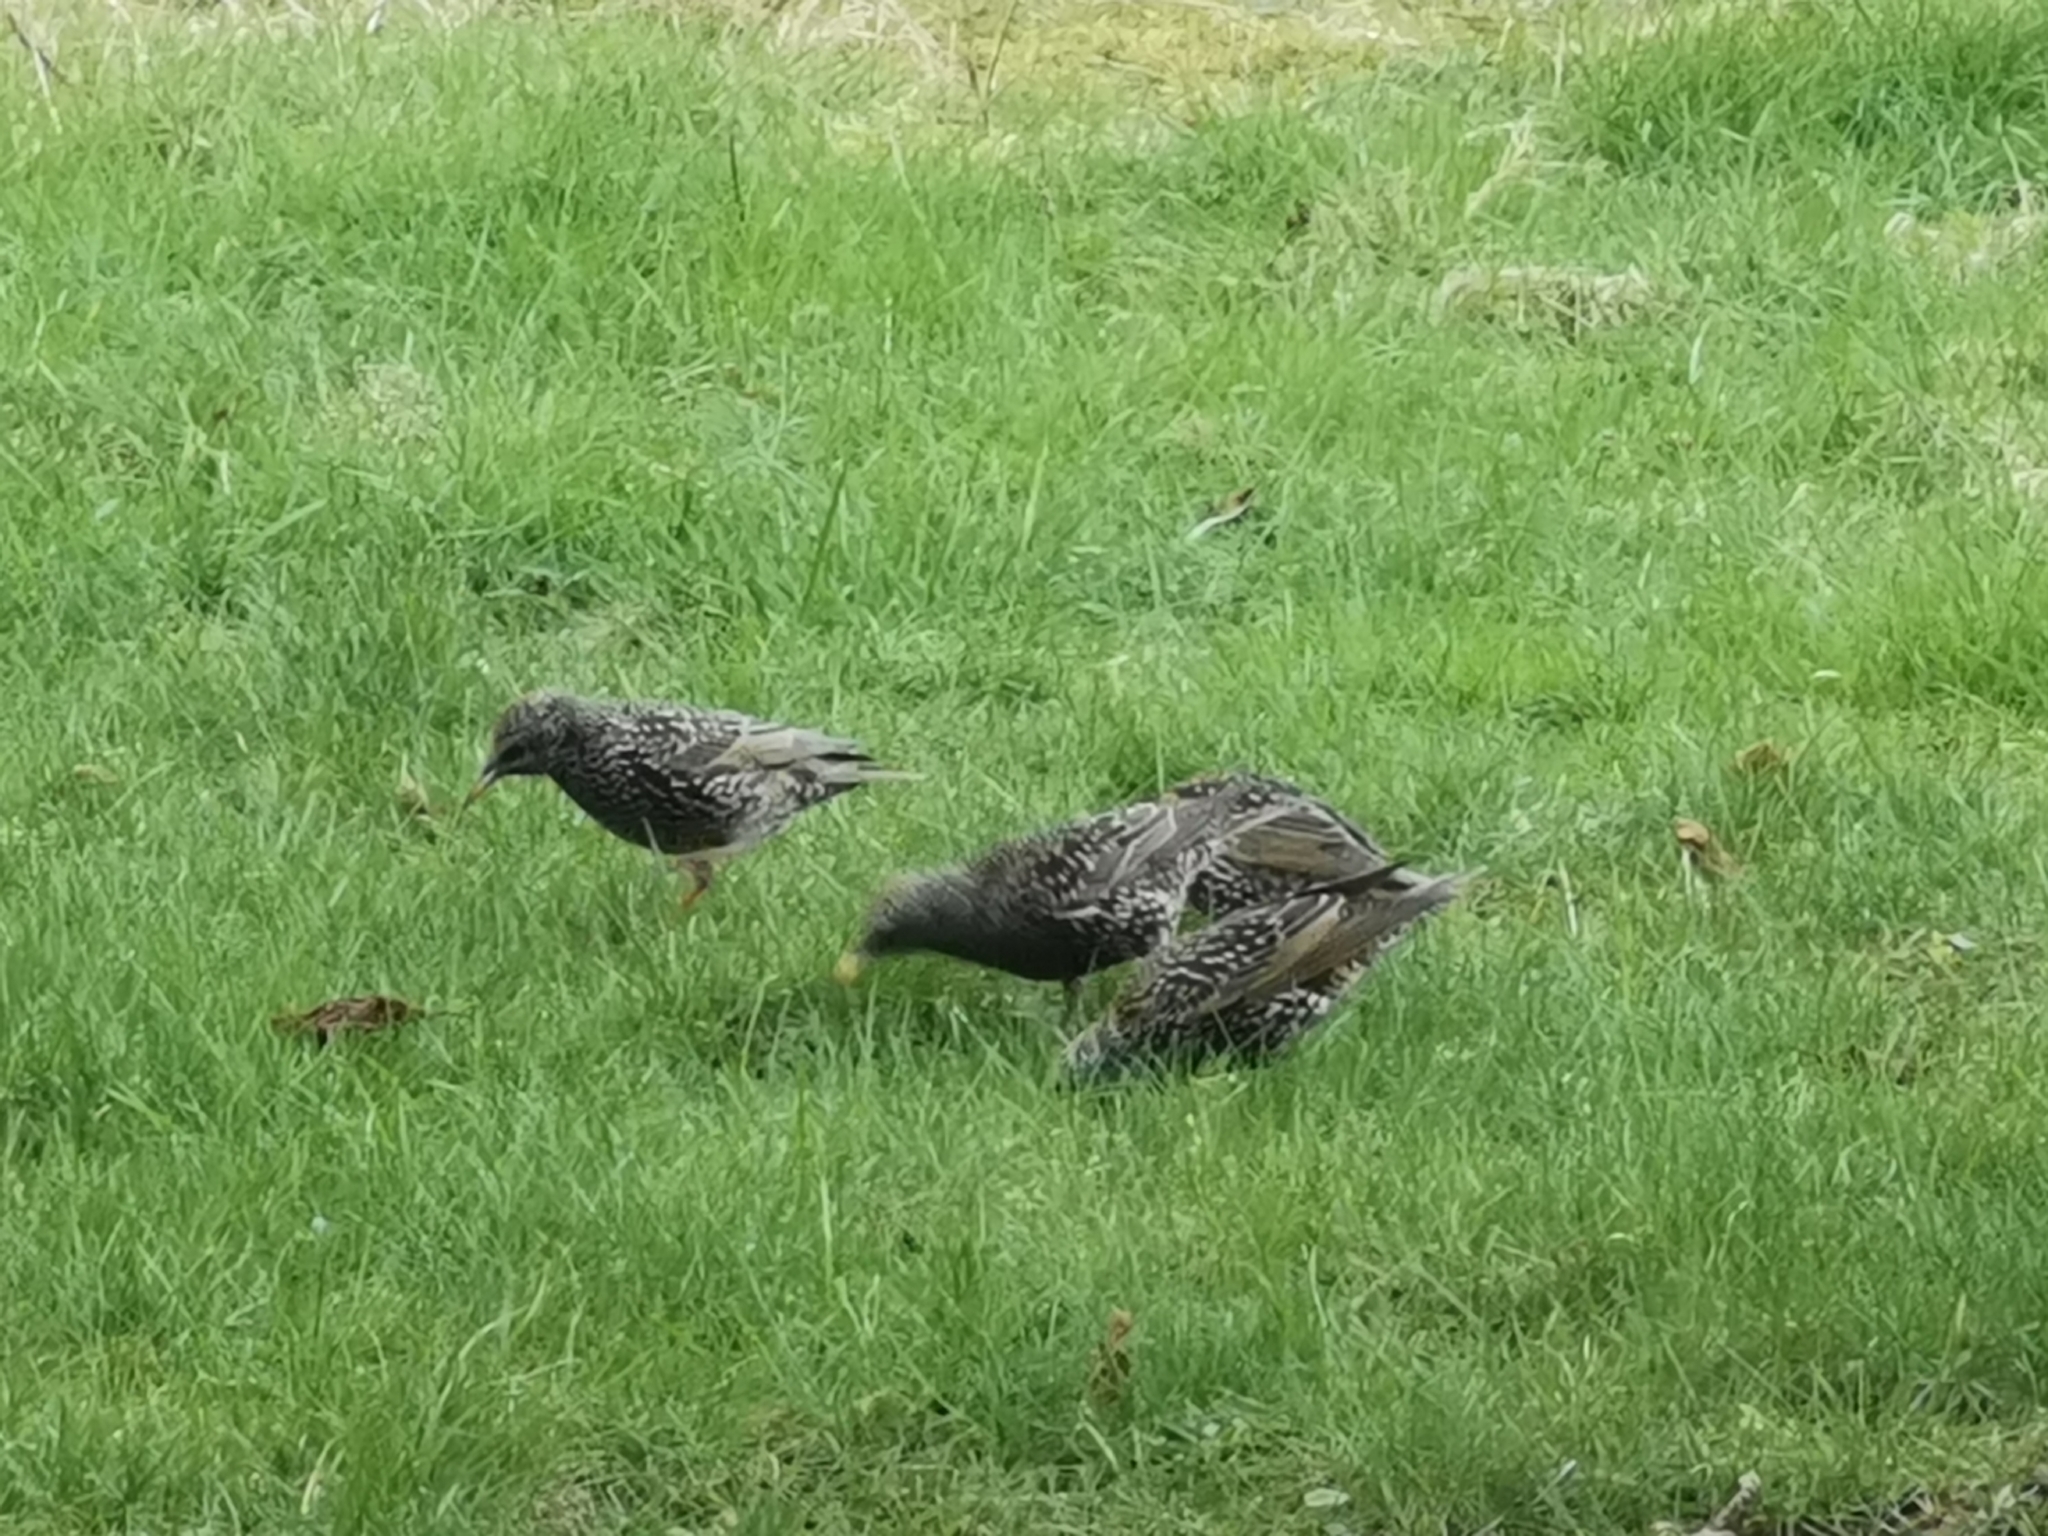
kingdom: Animalia
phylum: Chordata
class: Aves
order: Passeriformes
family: Sturnidae
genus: Sturnus
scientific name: Sturnus vulgaris
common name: Common starling
